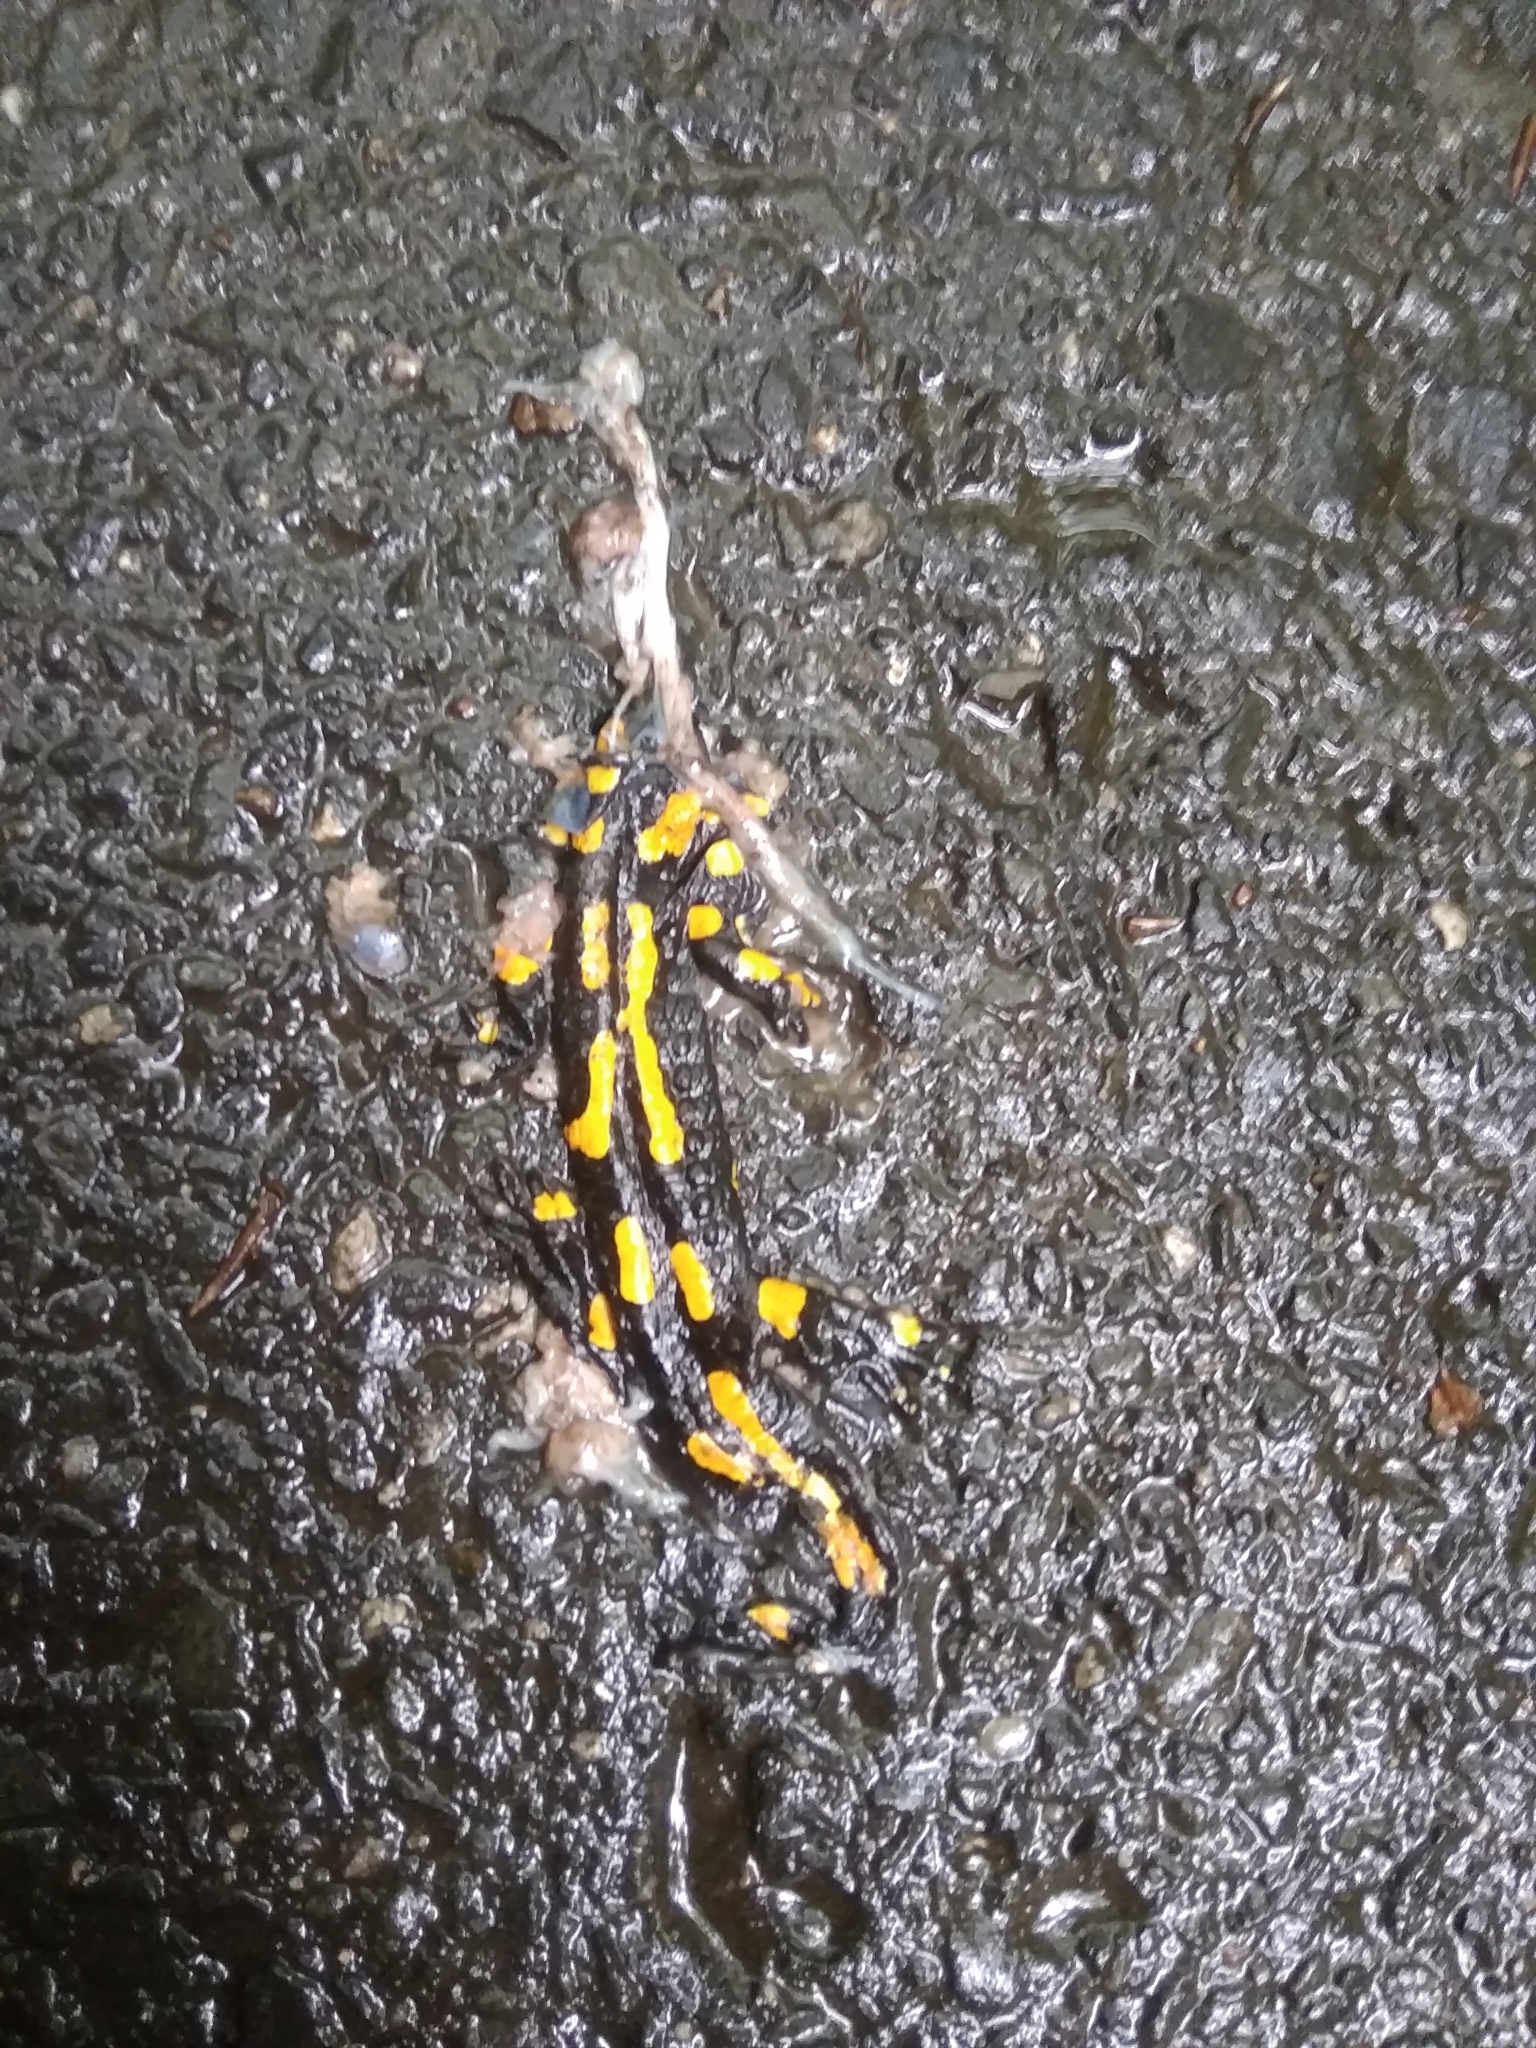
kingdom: Animalia
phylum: Chordata
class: Amphibia
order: Caudata
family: Salamandridae
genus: Salamandra
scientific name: Salamandra salamandra
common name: Fire salamander
